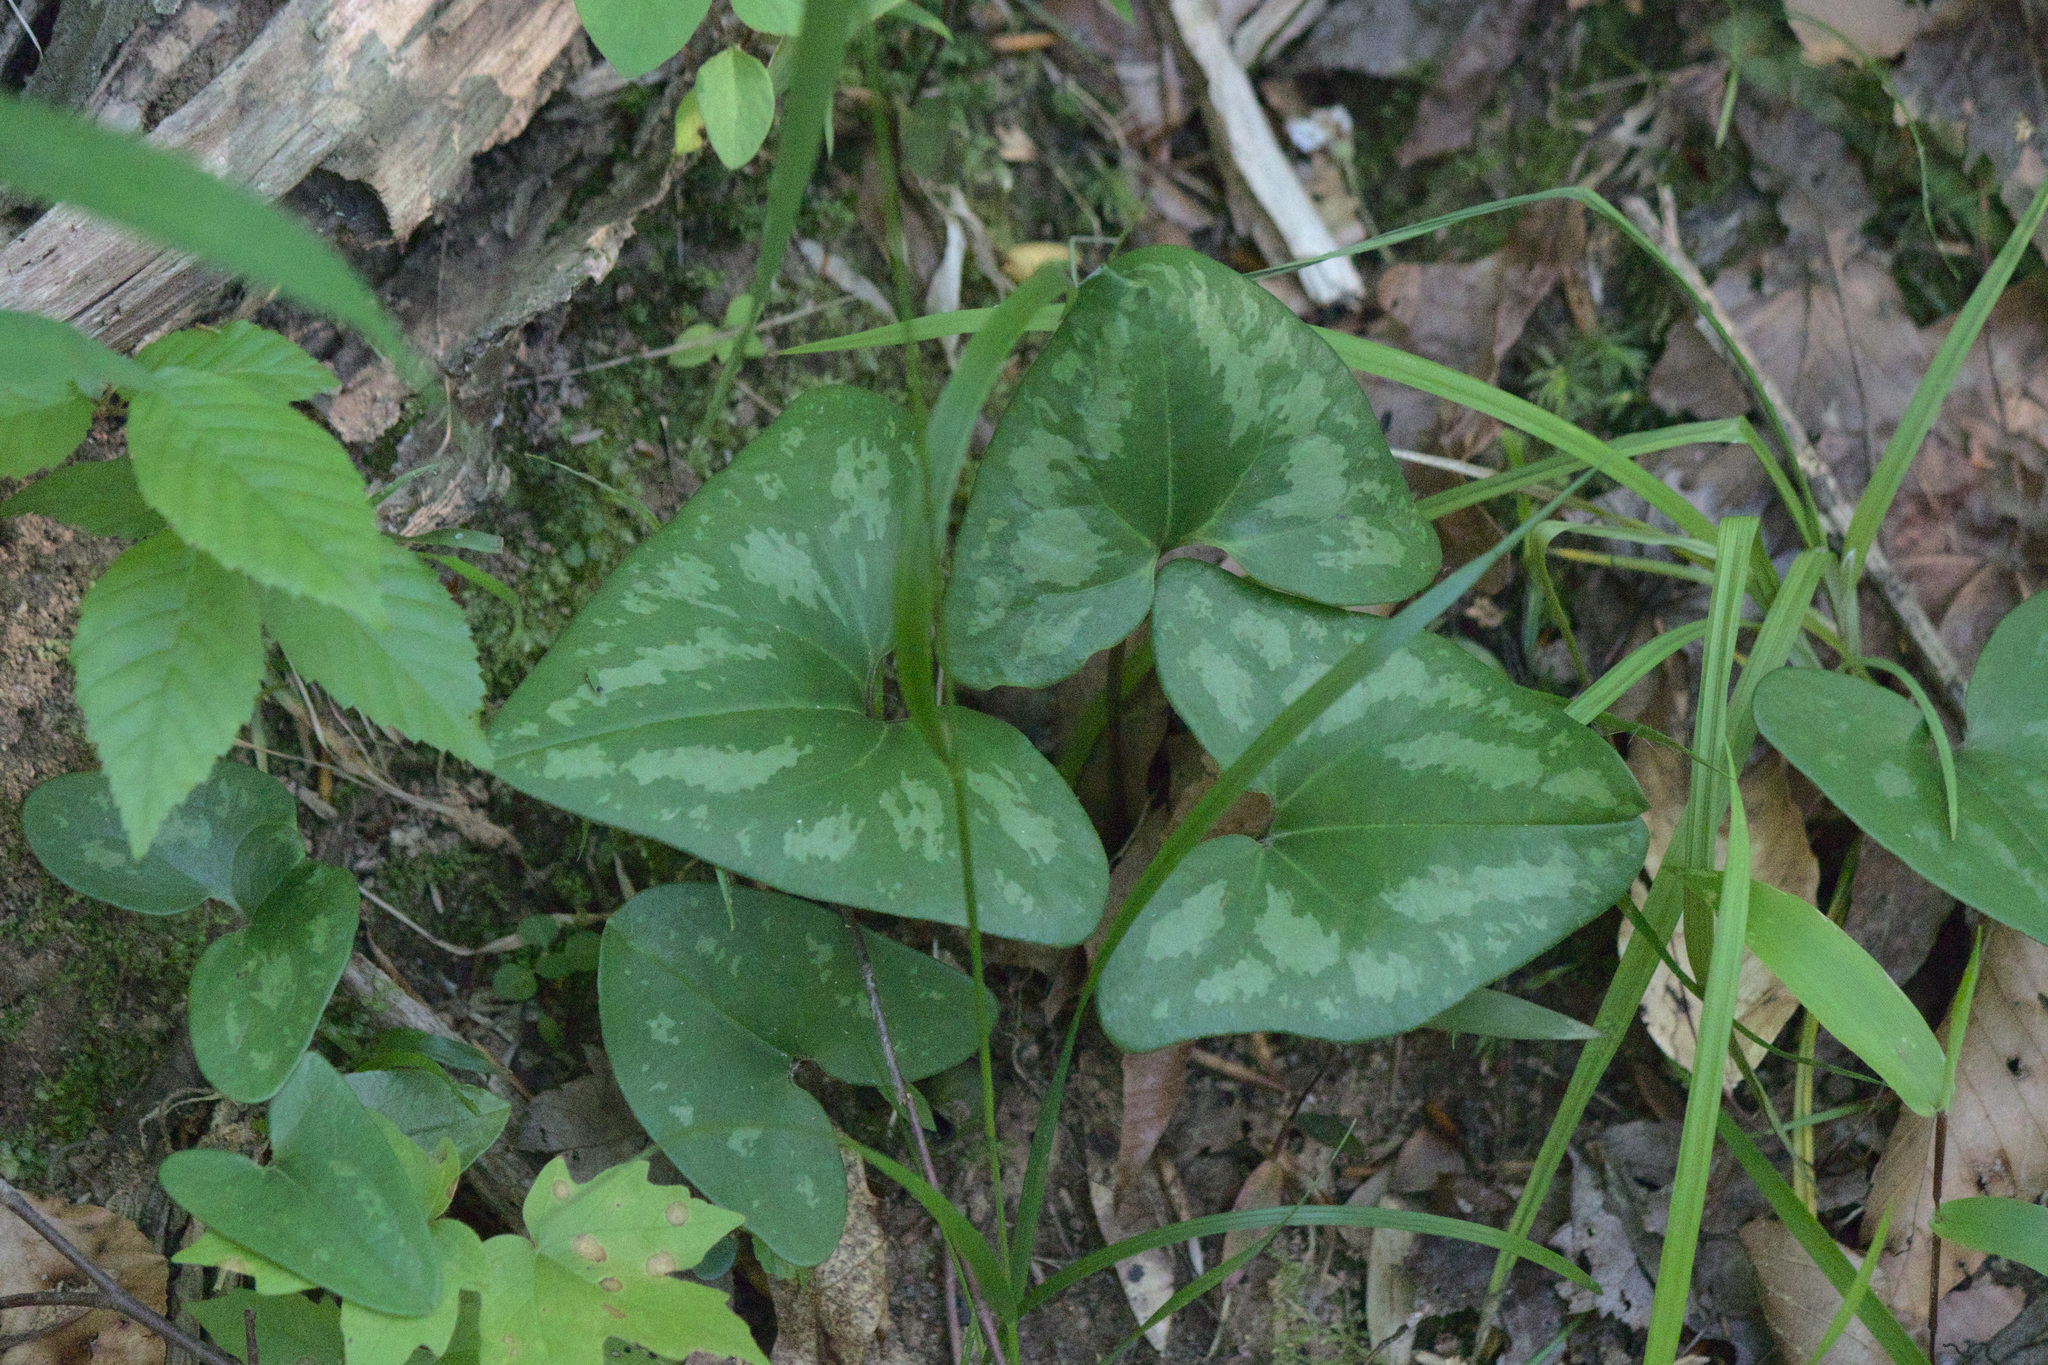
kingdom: Plantae
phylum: Tracheophyta
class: Magnoliopsida
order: Piperales
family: Aristolochiaceae
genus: Hexastylis
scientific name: Hexastylis arifolia
